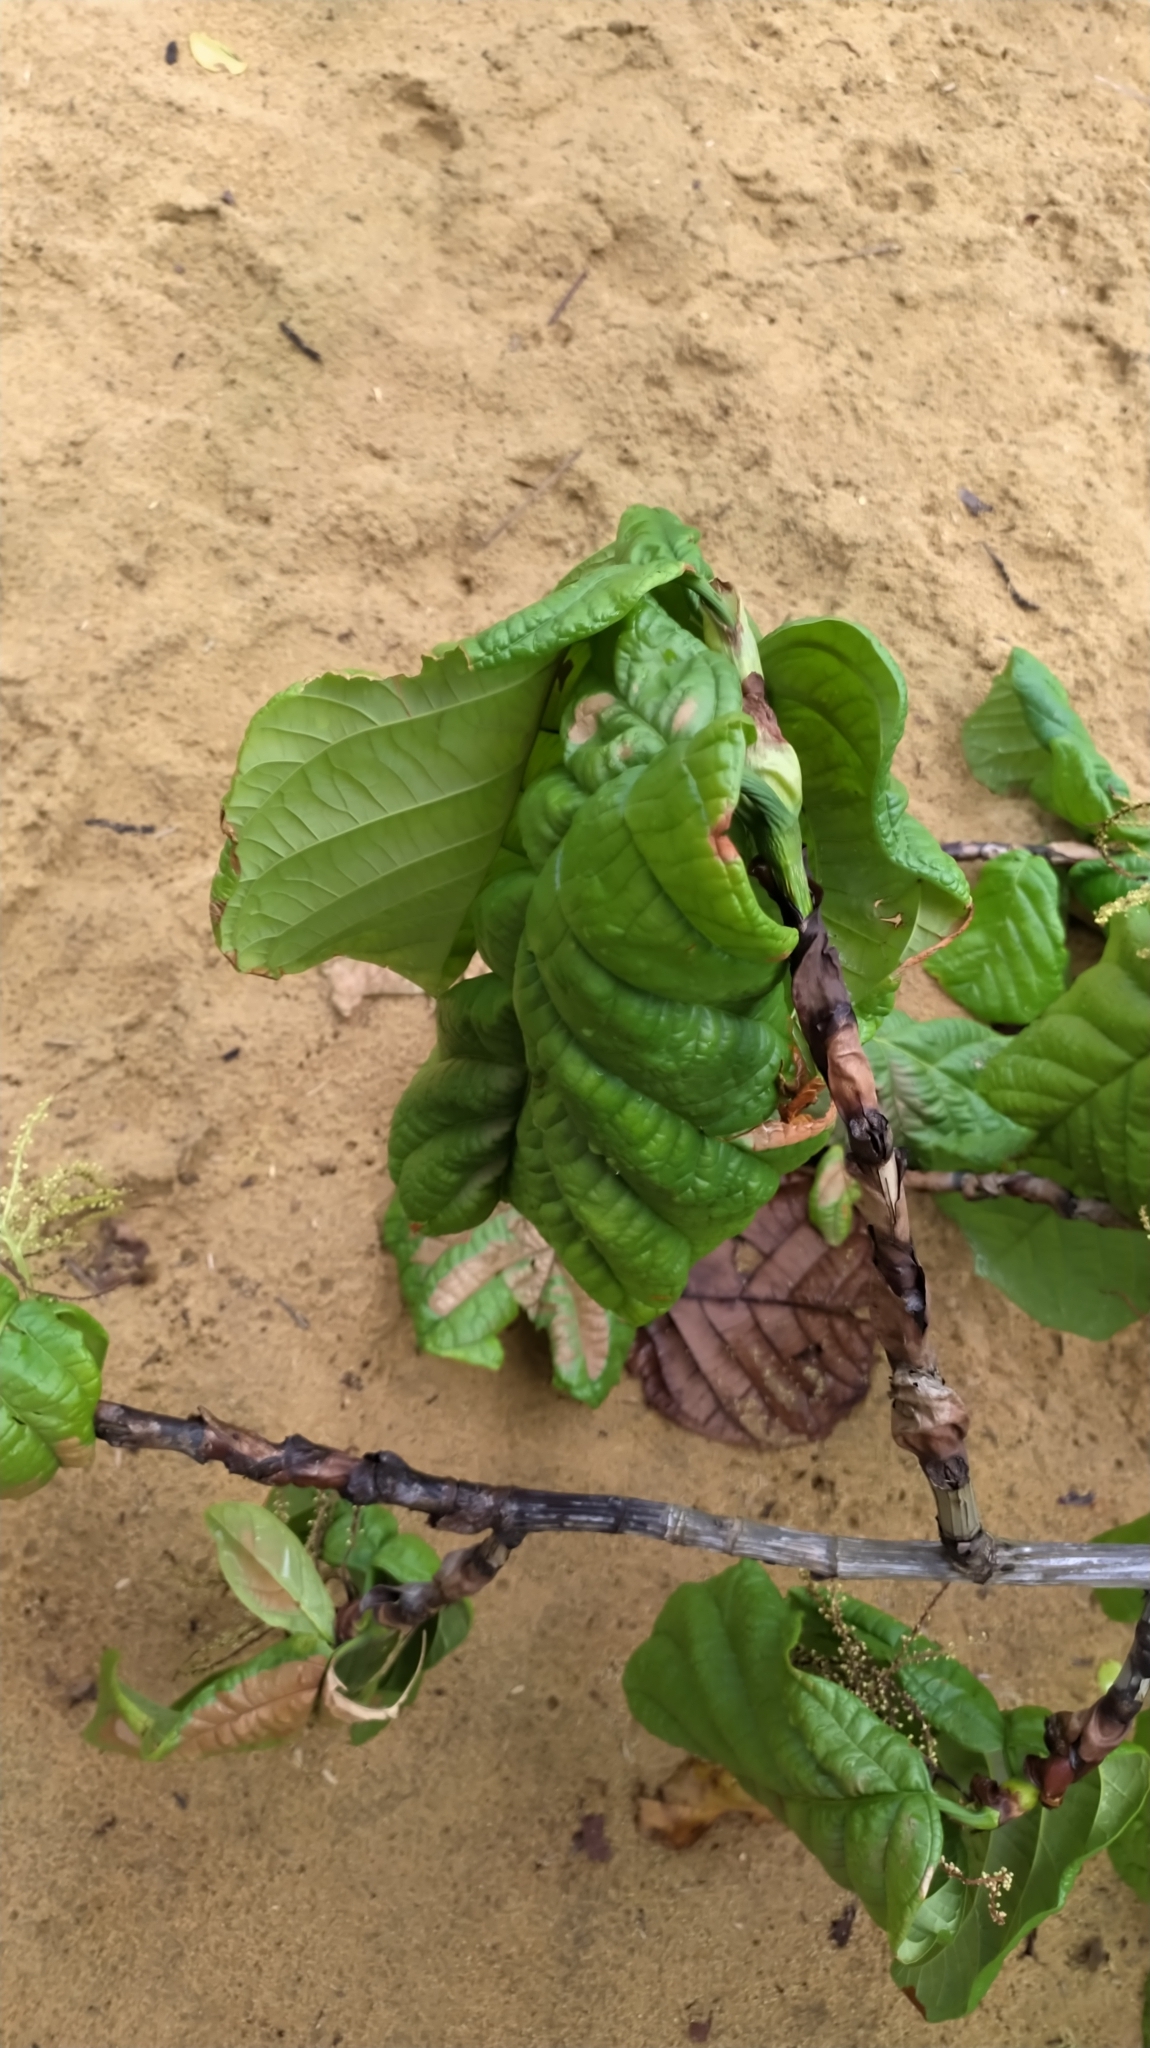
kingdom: Plantae
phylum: Tracheophyta
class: Magnoliopsida
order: Caryophyllales
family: Polygonaceae
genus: Coccoloba
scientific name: Coccoloba latifolia
